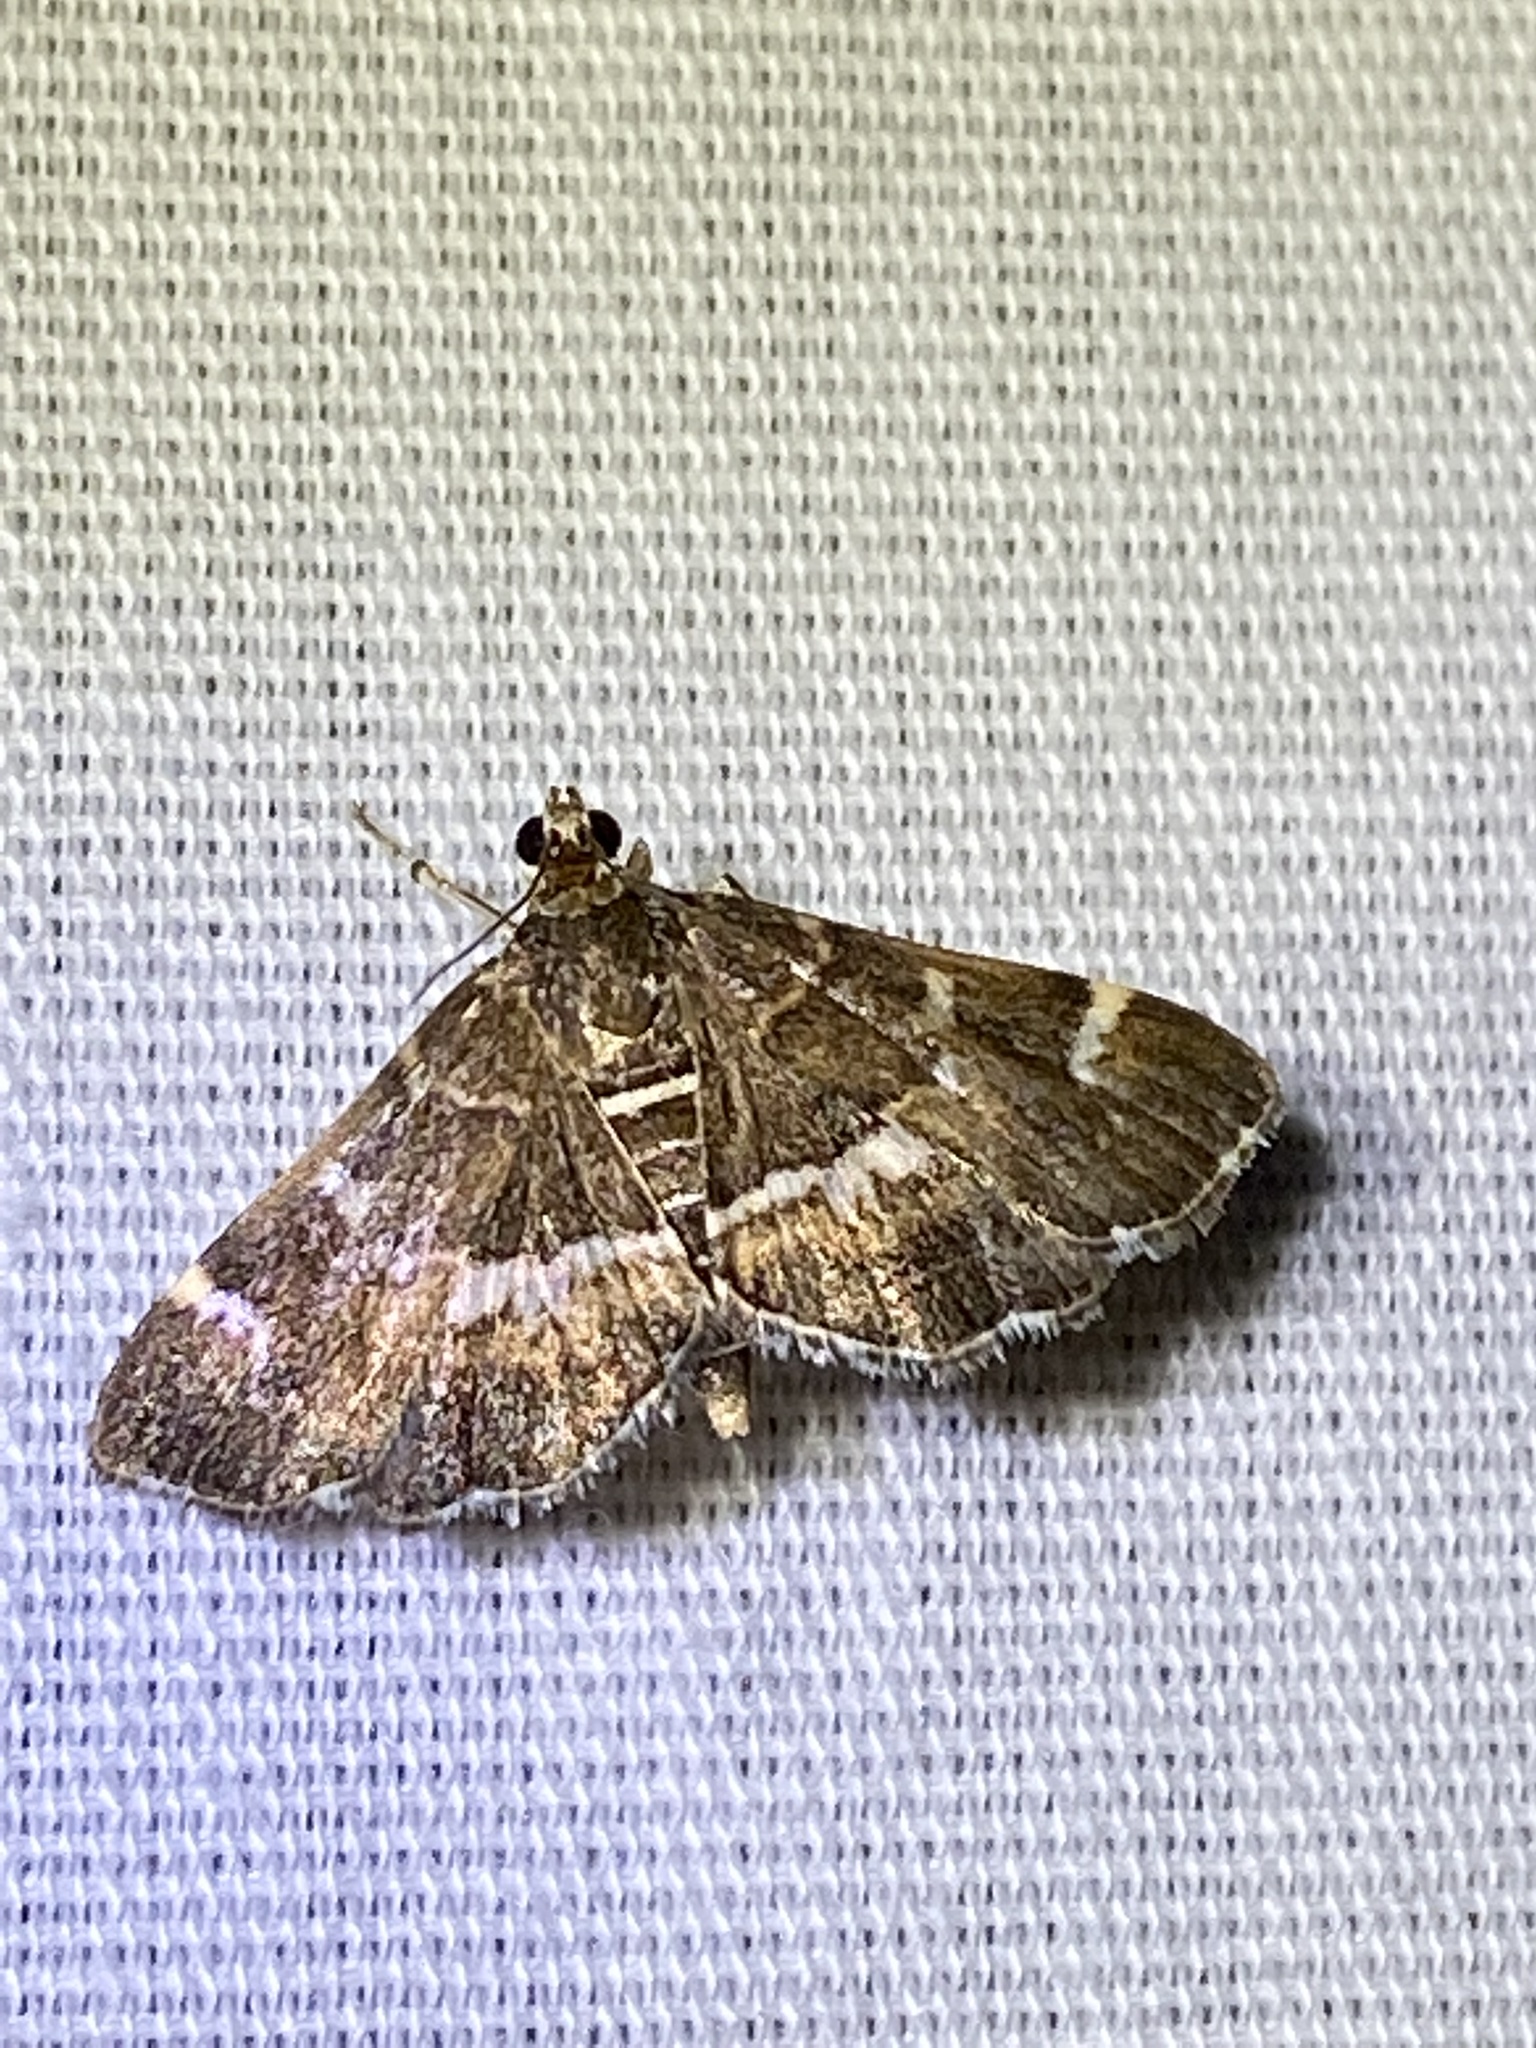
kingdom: Animalia
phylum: Arthropoda
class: Insecta
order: Lepidoptera
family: Crambidae
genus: Hymenia
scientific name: Hymenia perspectalis
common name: Spotted beet webworm
